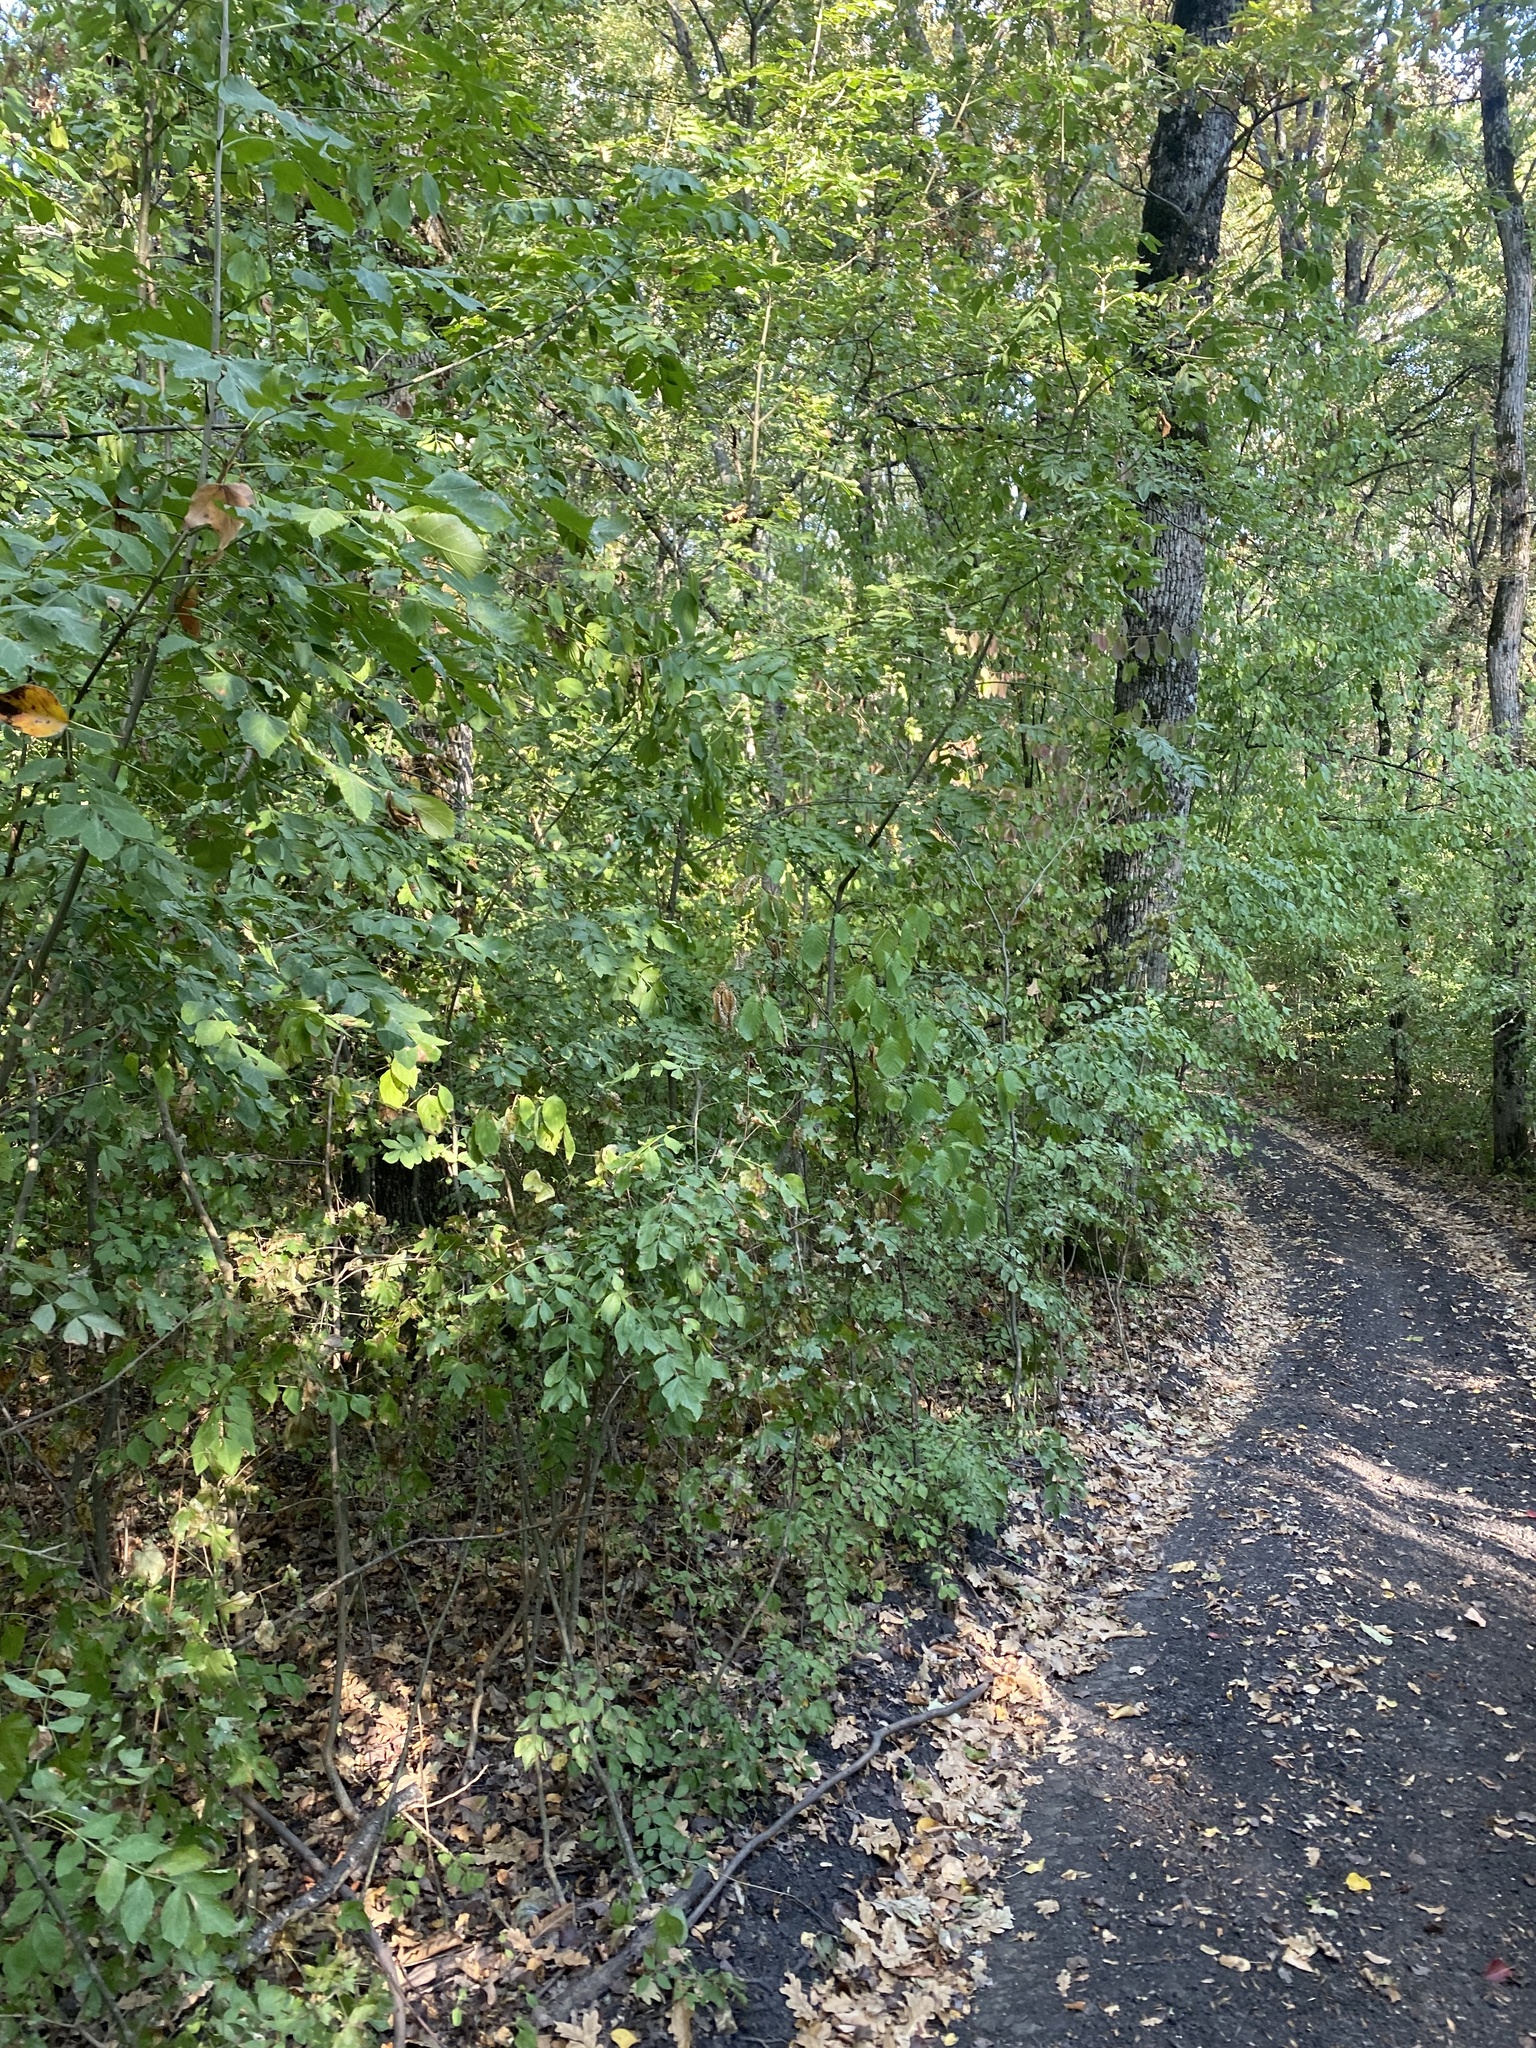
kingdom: Plantae
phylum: Tracheophyta
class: Magnoliopsida
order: Sapindales
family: Sapindaceae
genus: Acer
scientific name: Acer campestre
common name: Field maple
